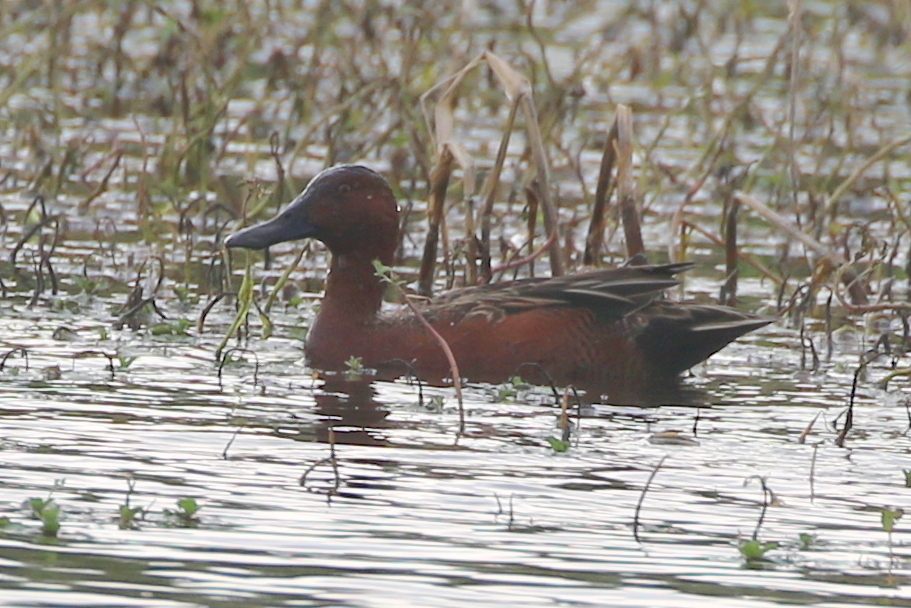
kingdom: Animalia
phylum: Chordata
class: Aves
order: Anseriformes
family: Anatidae
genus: Spatula
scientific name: Spatula cyanoptera
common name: Cinnamon teal
